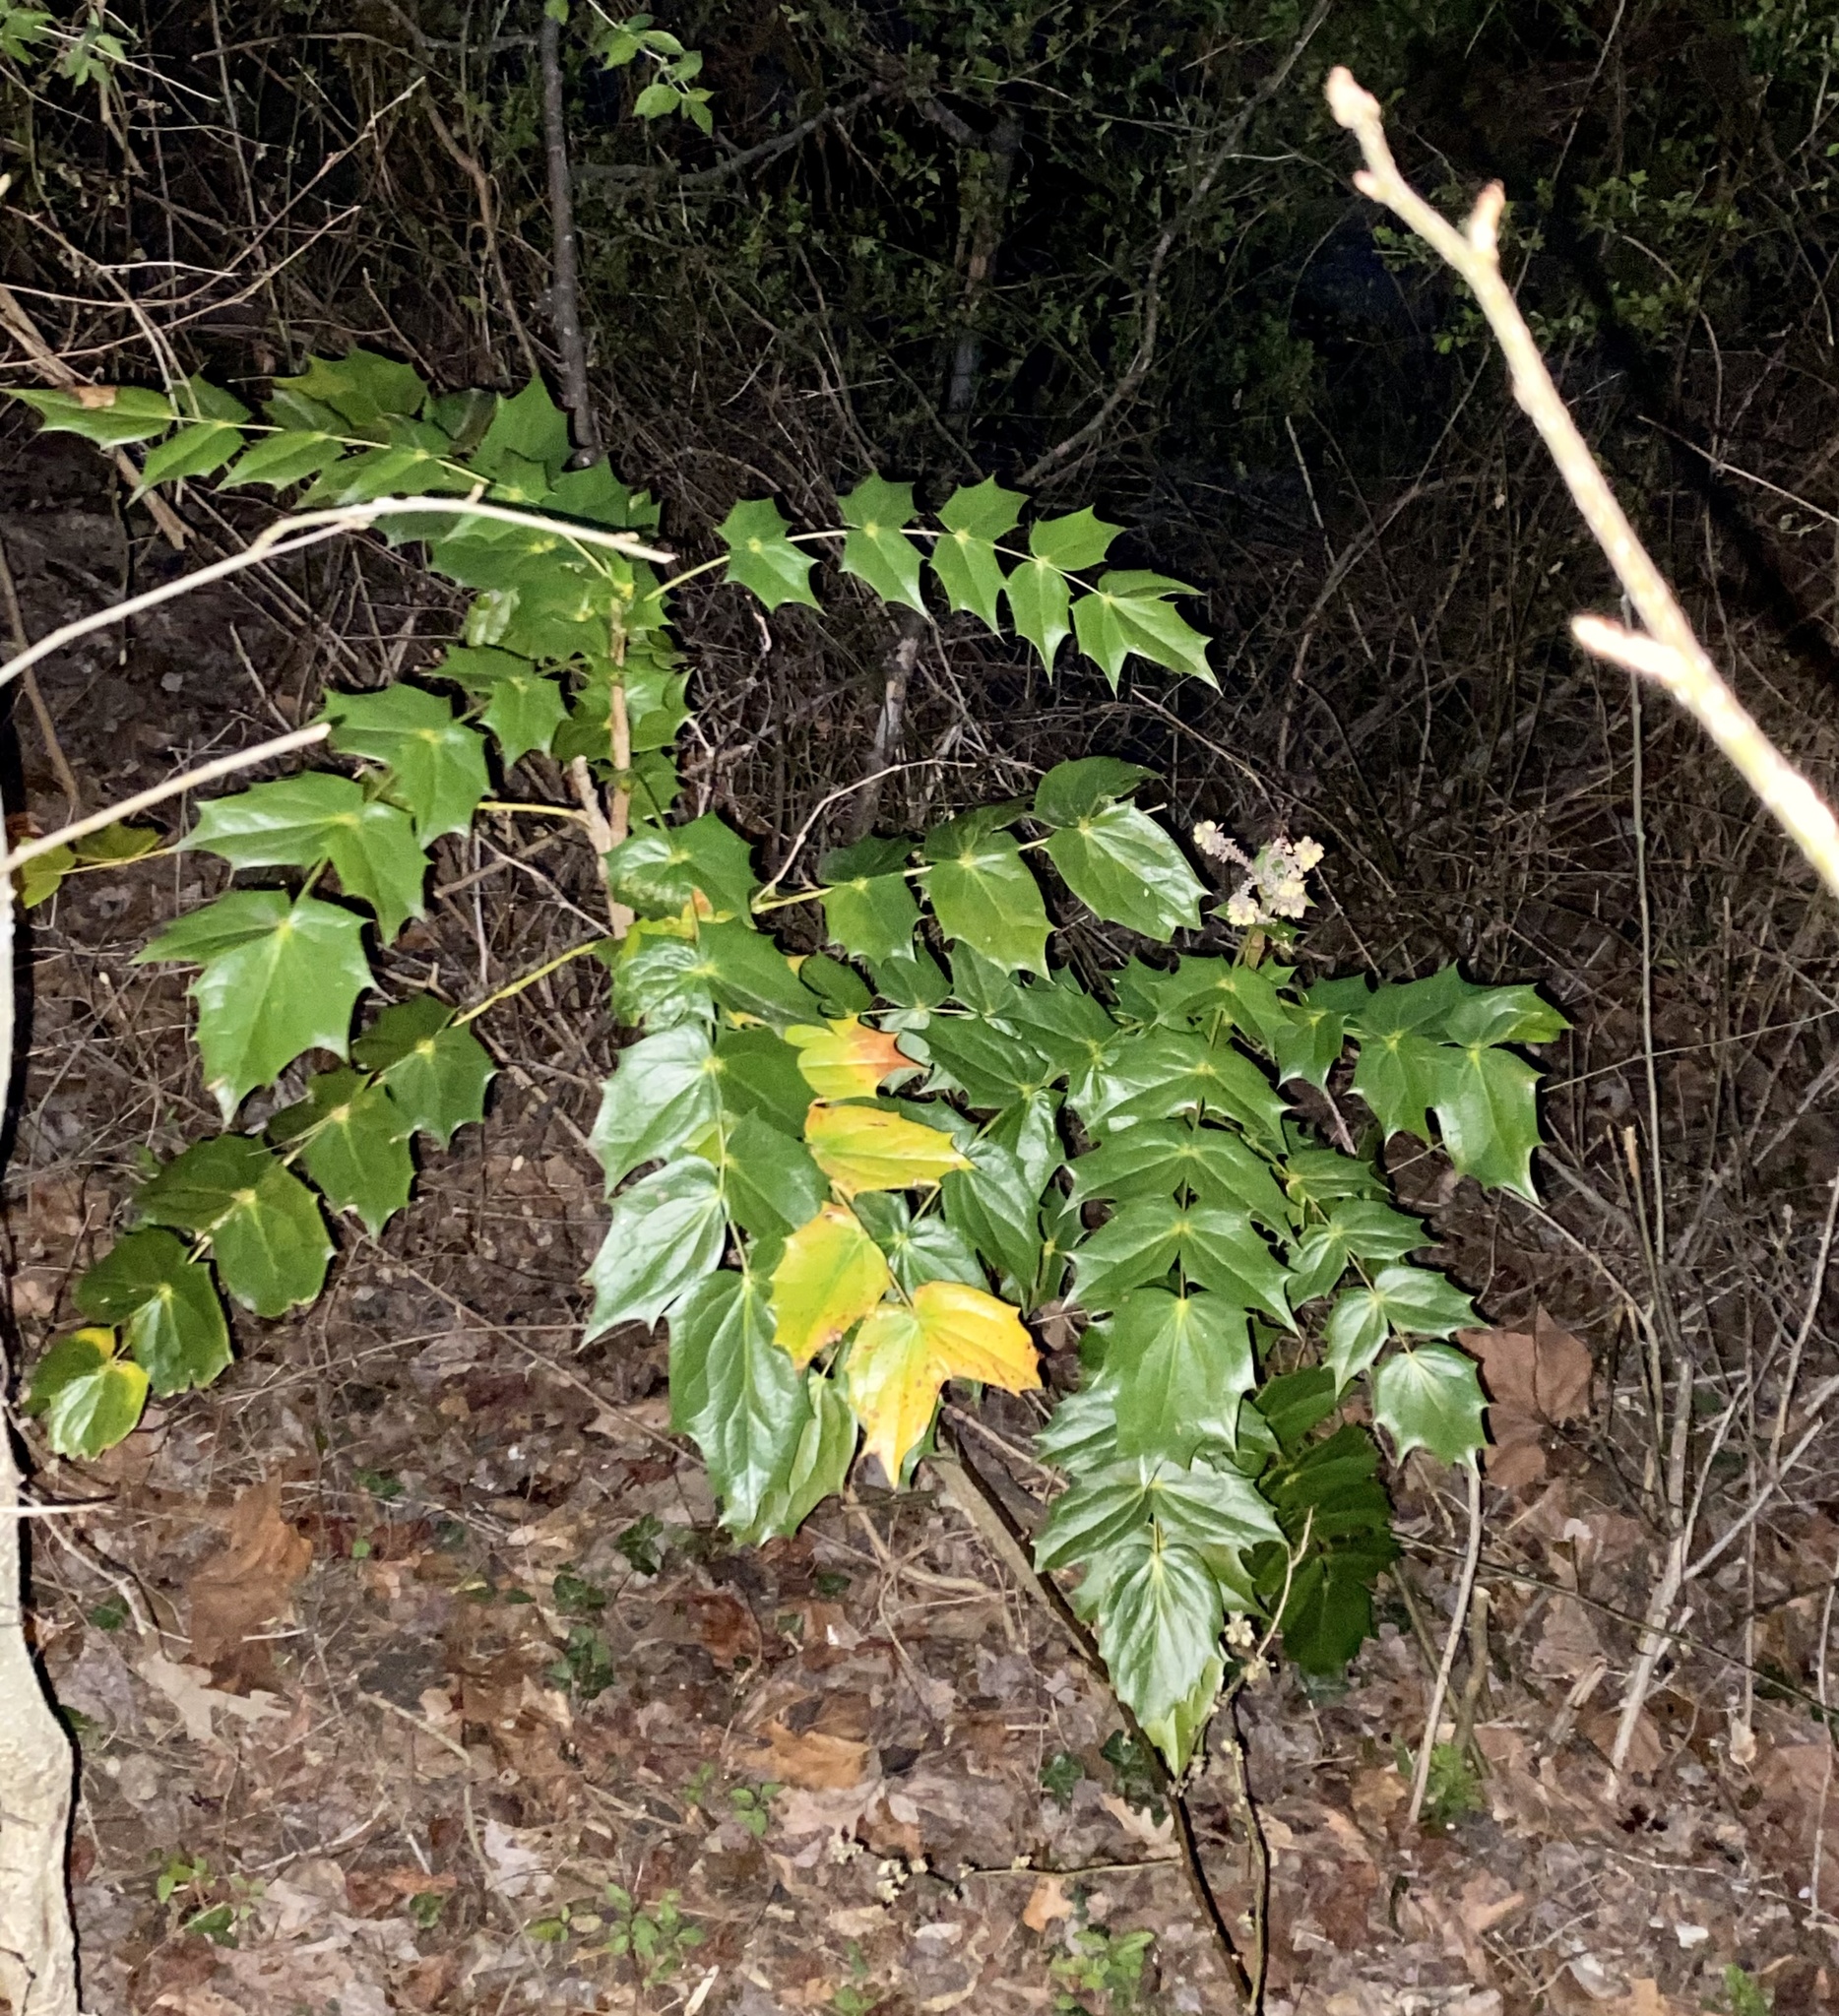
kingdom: Plantae
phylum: Tracheophyta
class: Magnoliopsida
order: Ranunculales
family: Berberidaceae
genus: Mahonia
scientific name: Mahonia bealei
